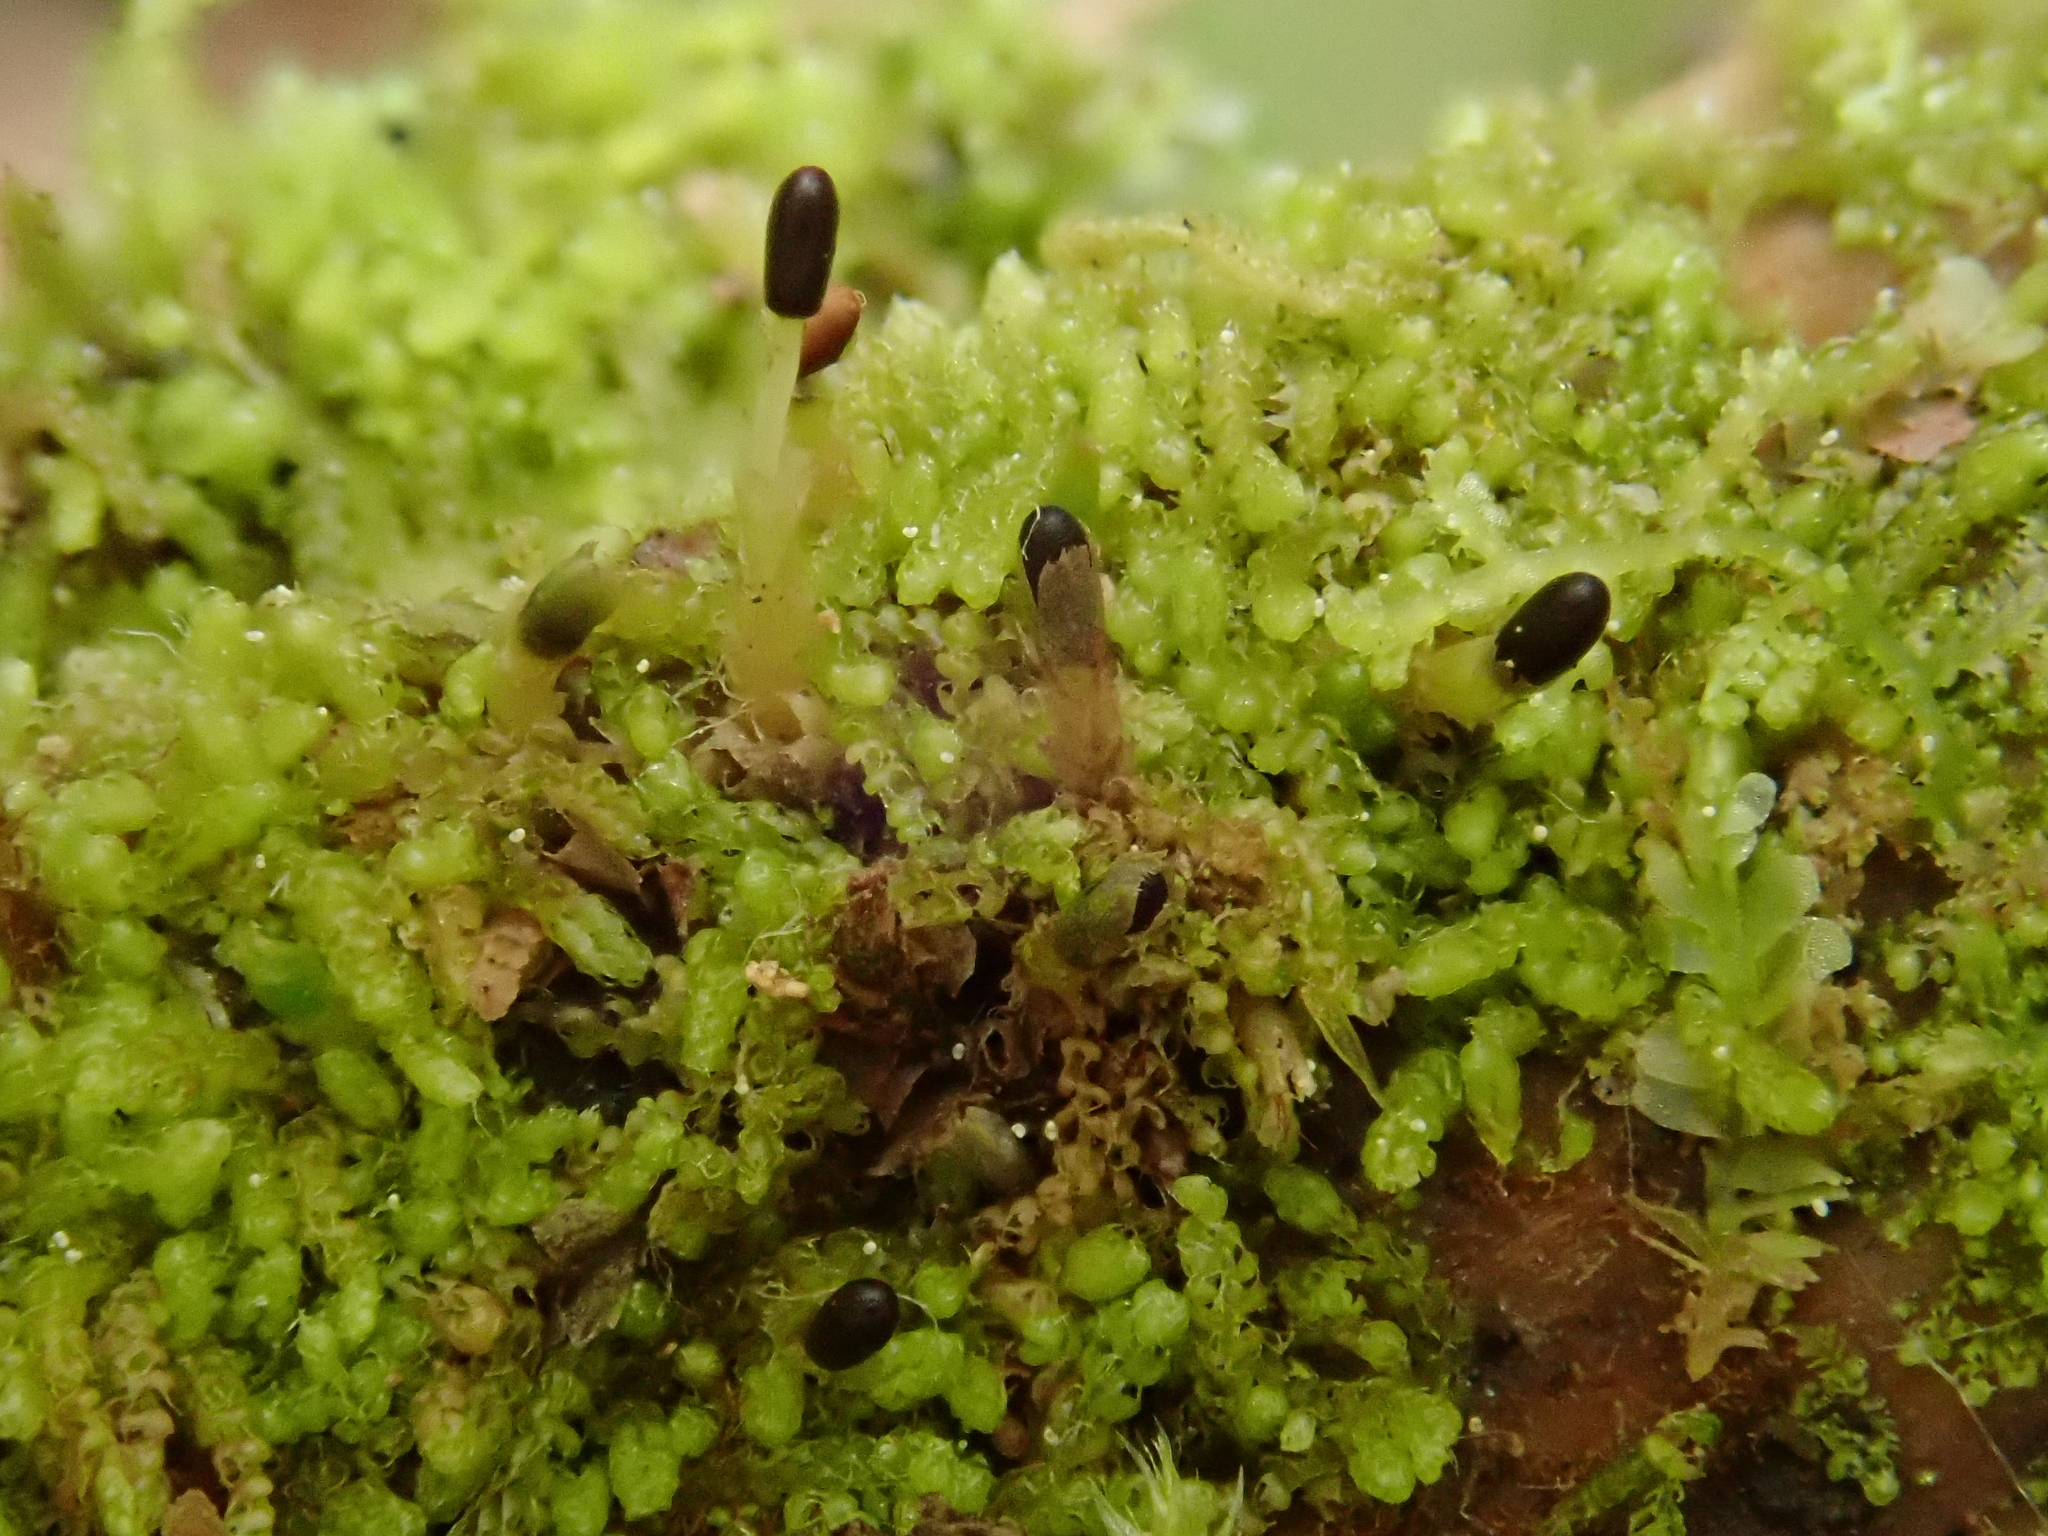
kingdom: Plantae
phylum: Marchantiophyta
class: Jungermanniopsida
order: Jungermanniales
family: Cephaloziaceae
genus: Nowellia
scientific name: Nowellia curvifolia
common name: Wood rustwort
